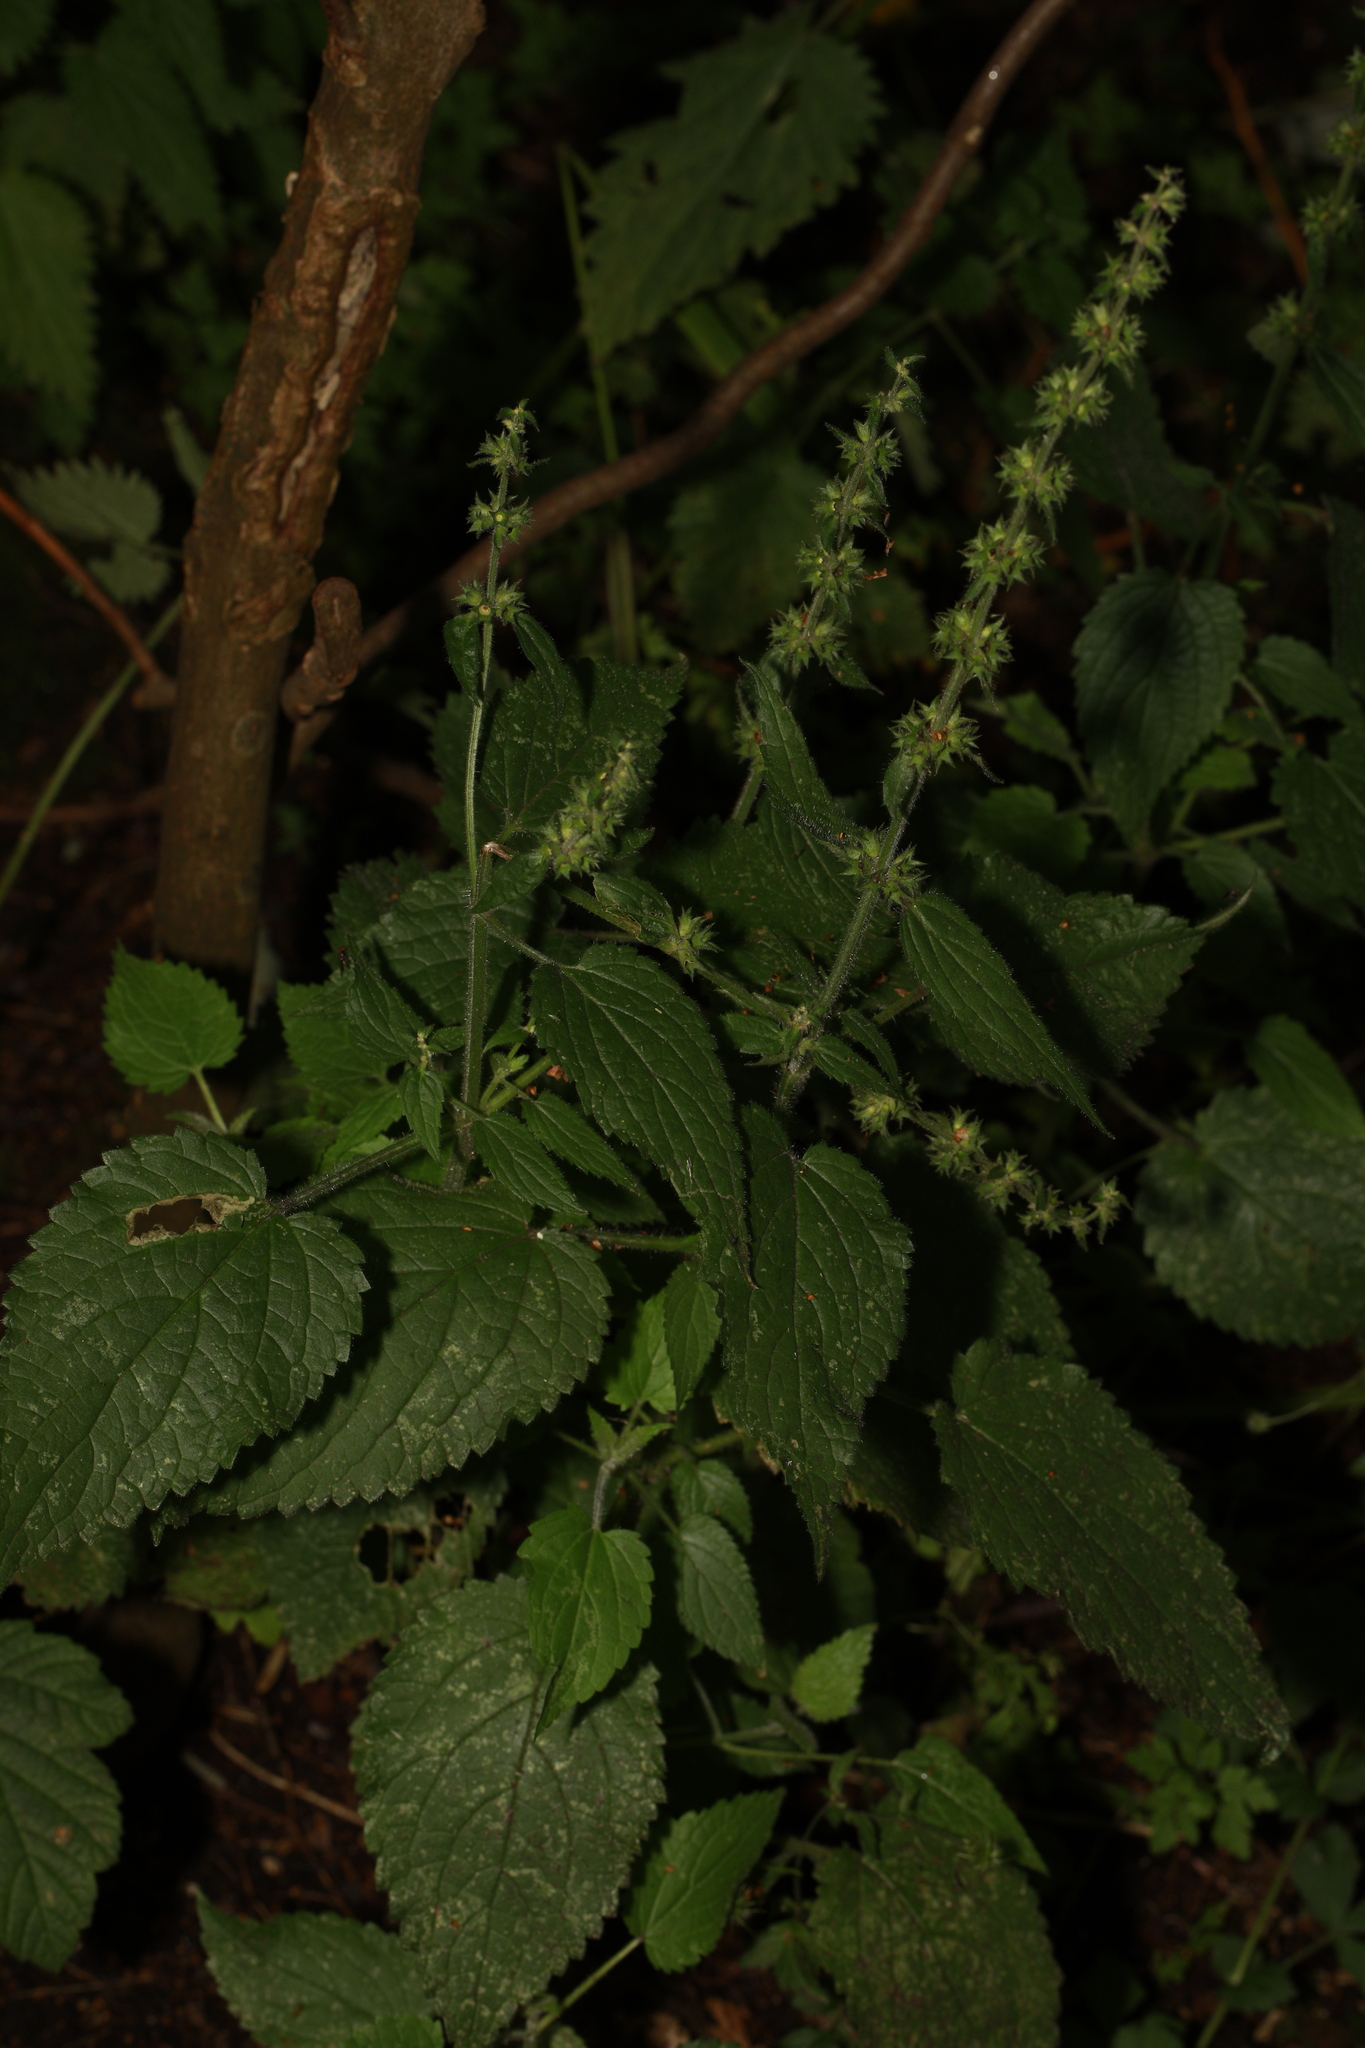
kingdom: Plantae
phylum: Tracheophyta
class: Magnoliopsida
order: Lamiales
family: Lamiaceae
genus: Stachys
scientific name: Stachys sylvatica
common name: Hedge woundwort
